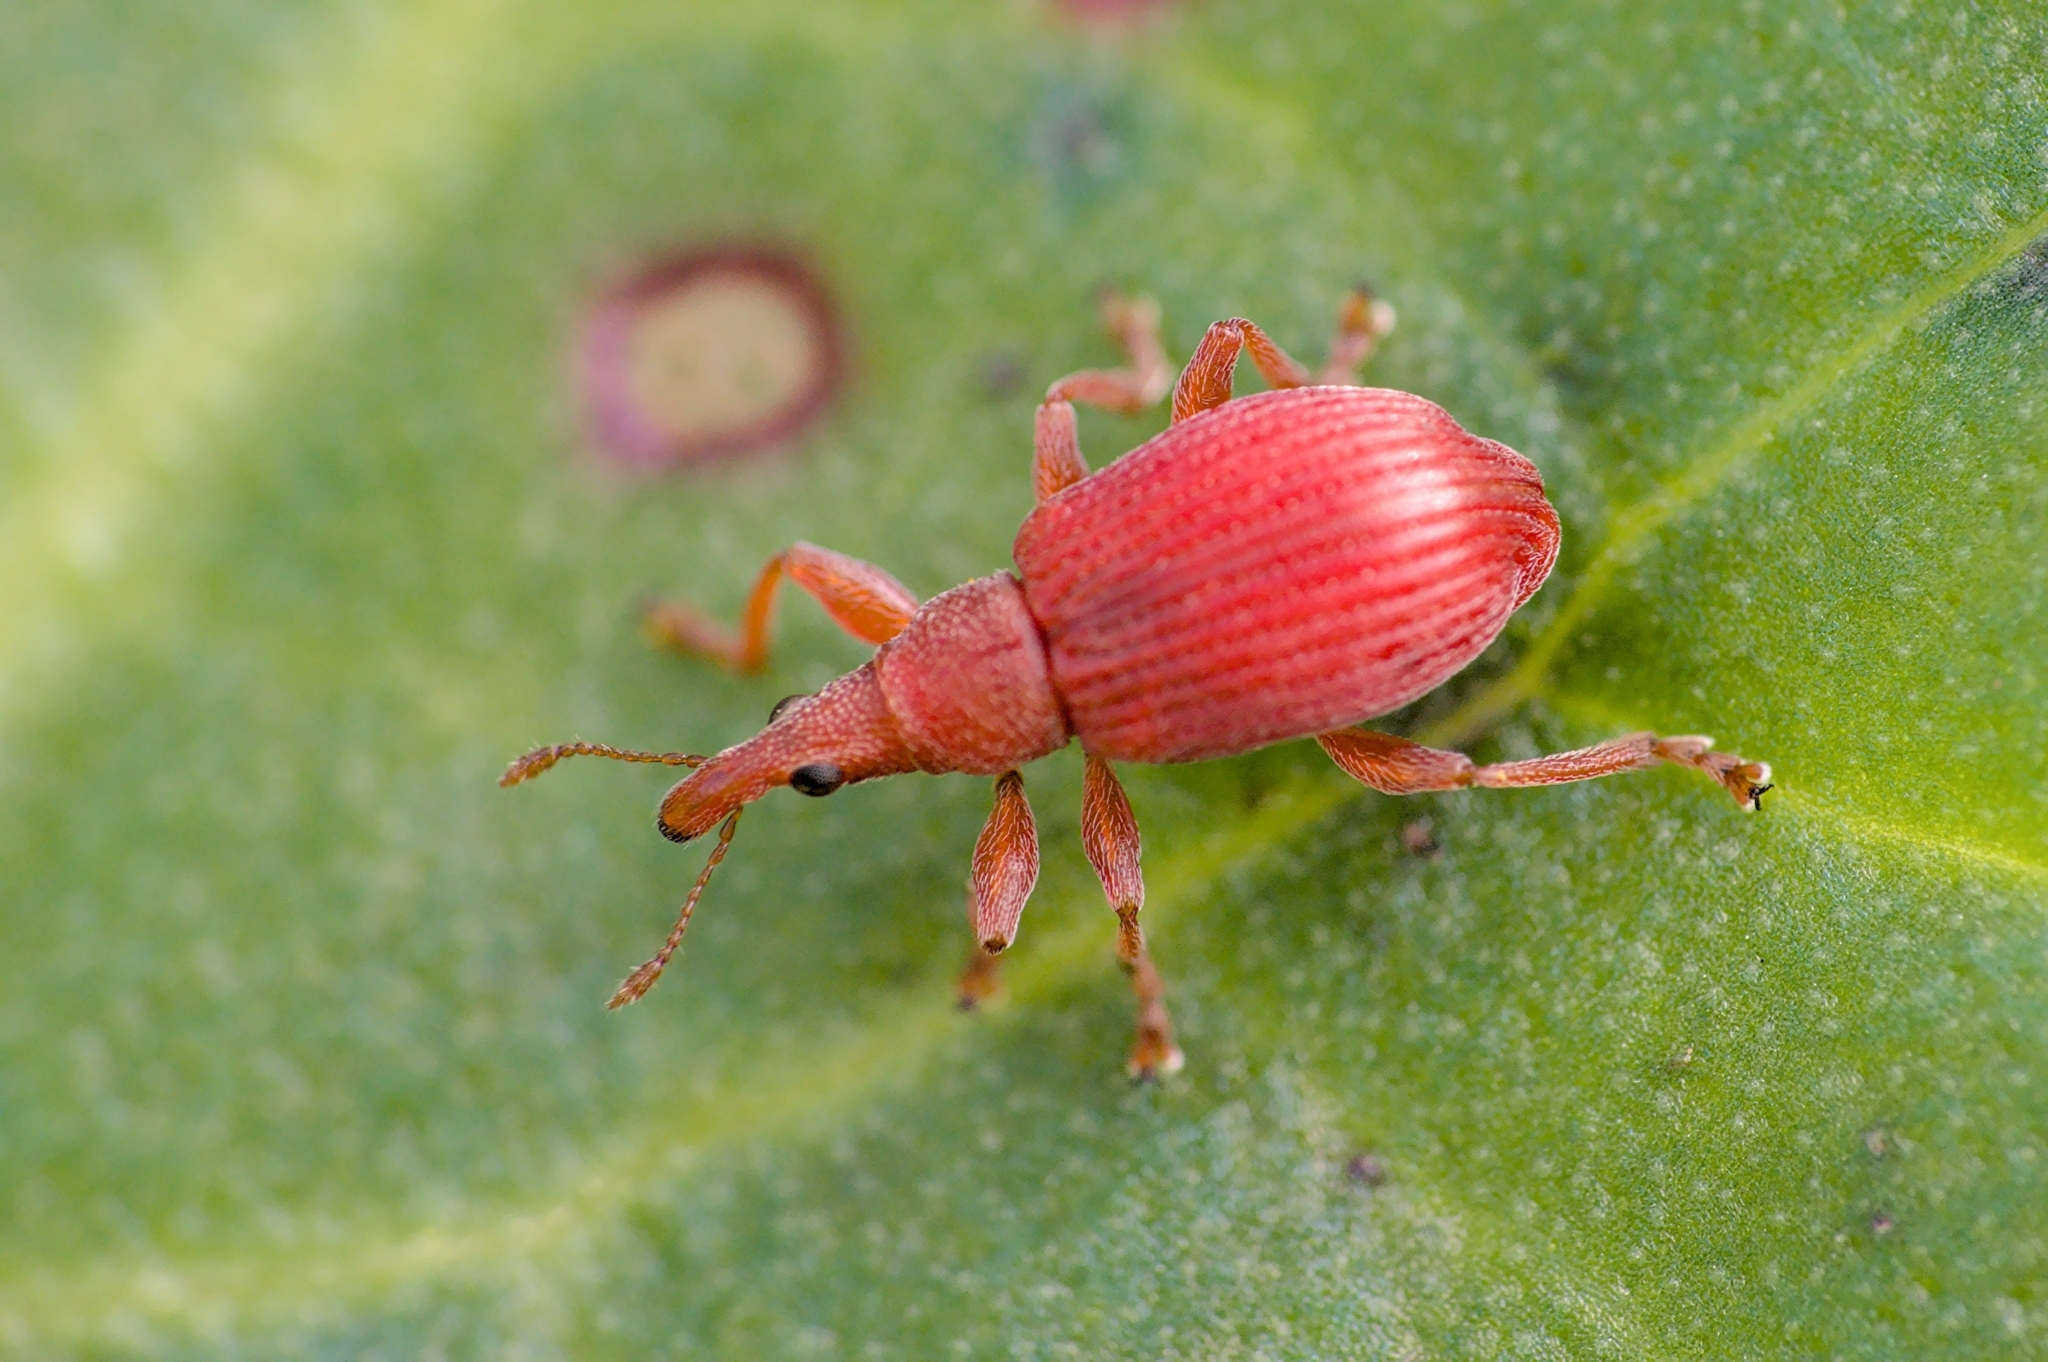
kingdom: Animalia
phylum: Arthropoda
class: Insecta
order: Coleoptera
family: Apionidae
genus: Apion
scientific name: Apion frumentarium
